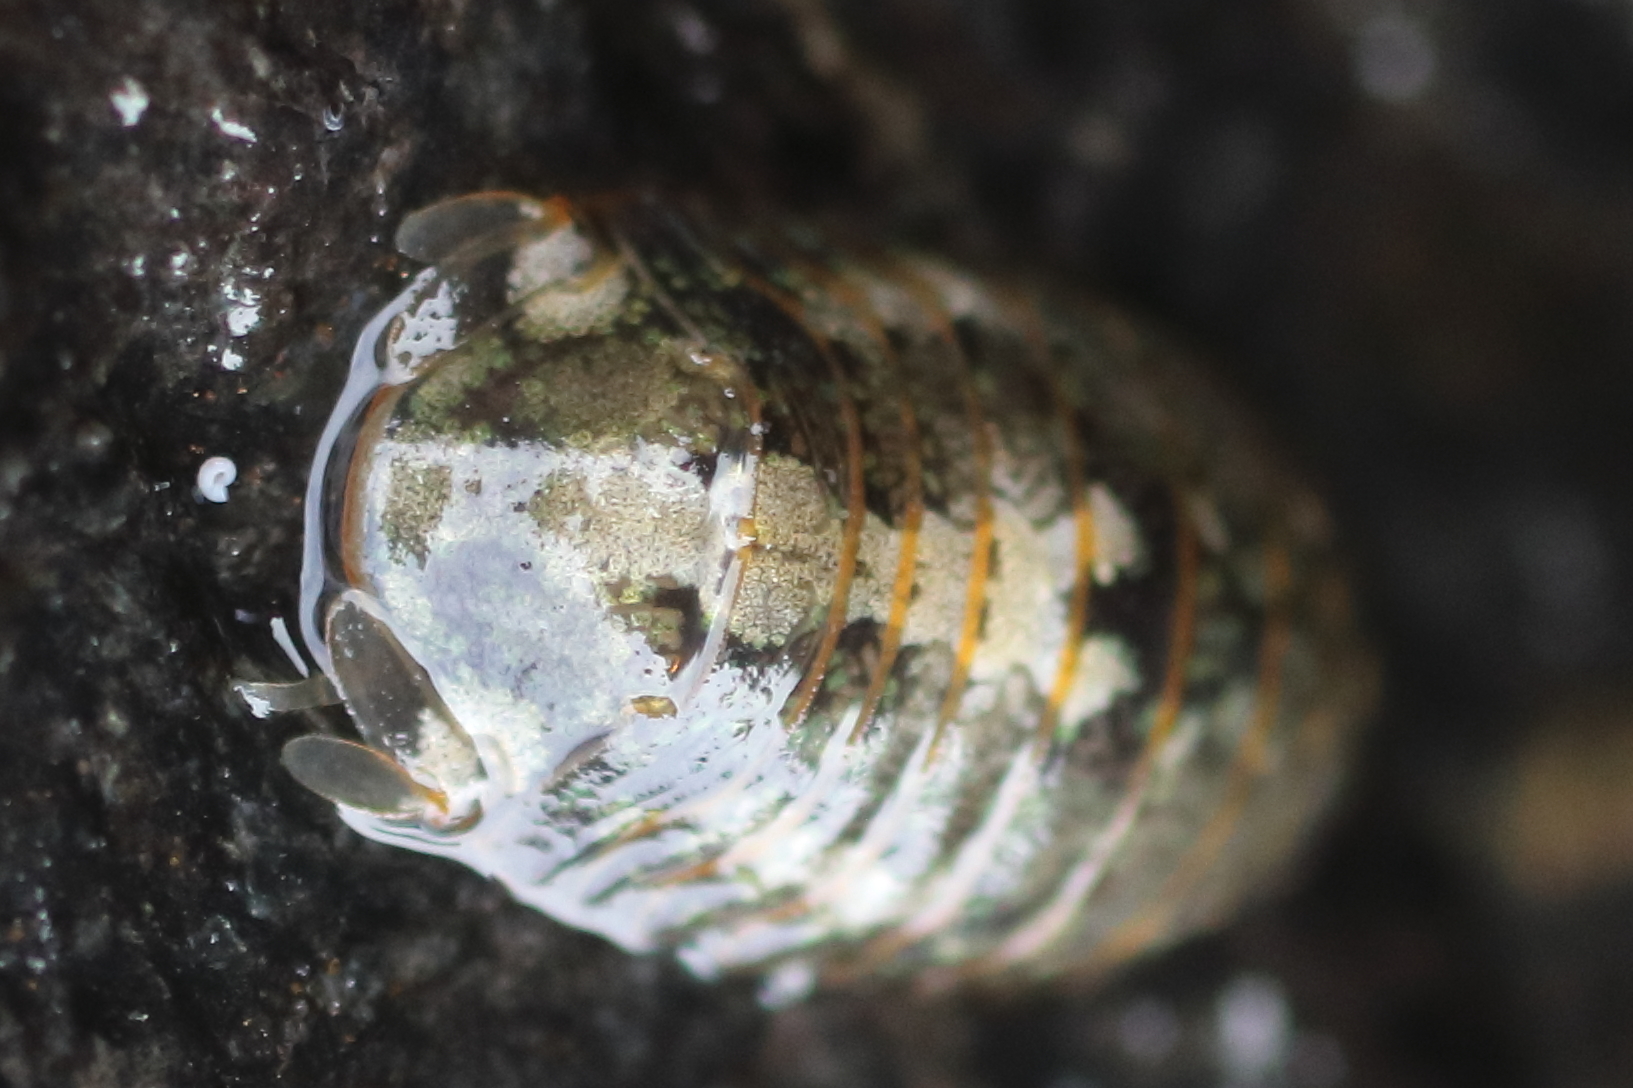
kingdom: Animalia
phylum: Arthropoda
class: Malacostraca
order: Isopoda
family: Sphaeromatidae
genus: Gnorimosphaeroma
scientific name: Gnorimosphaeroma oregonense
